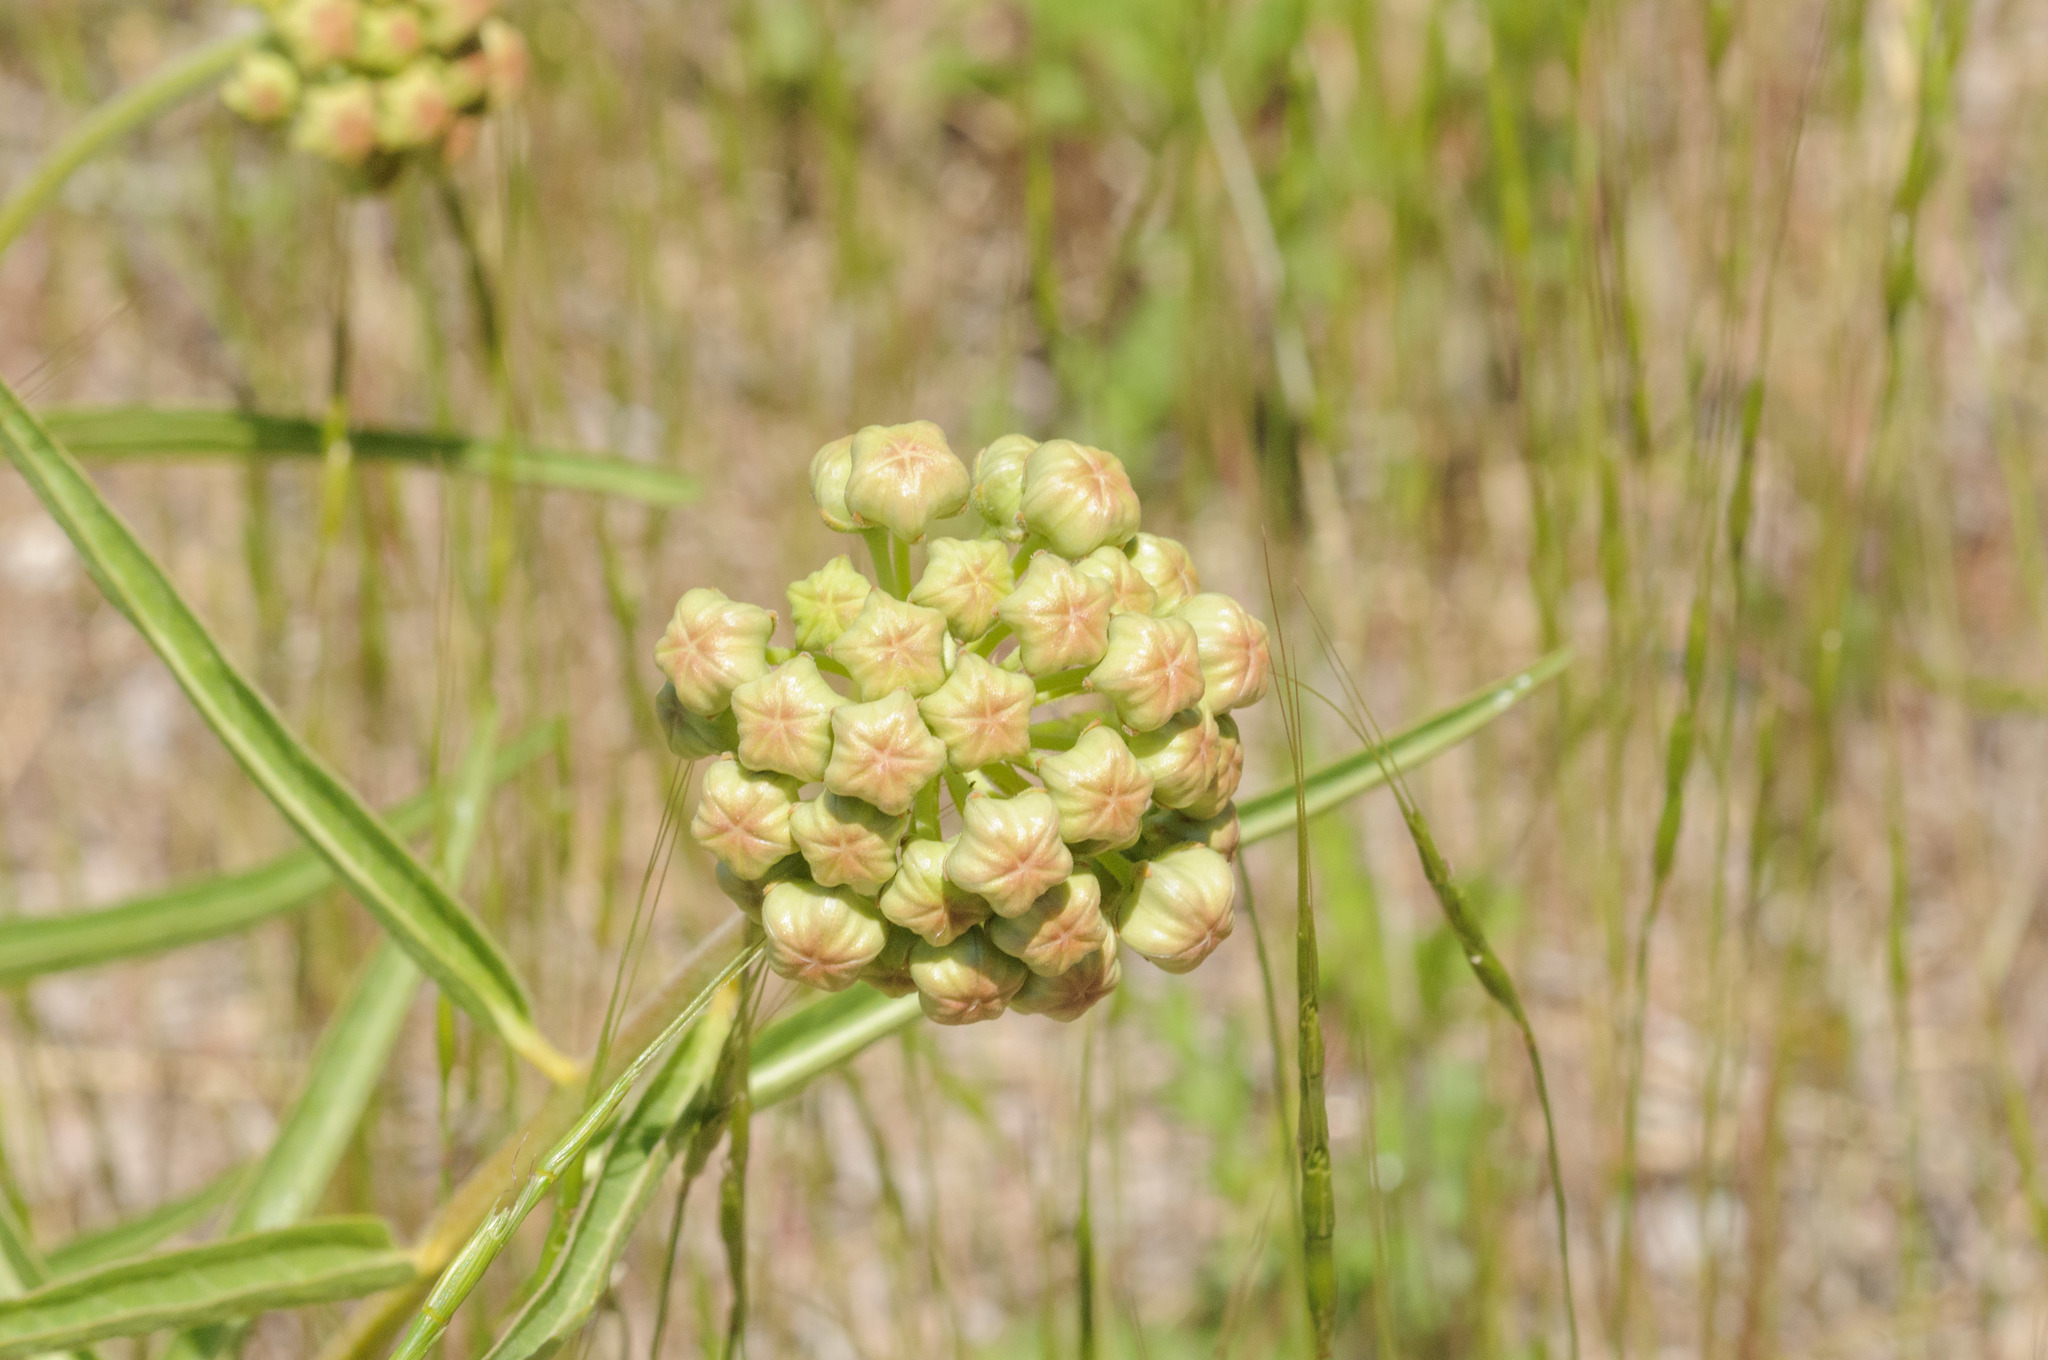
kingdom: Plantae
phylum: Tracheophyta
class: Magnoliopsida
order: Gentianales
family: Apocynaceae
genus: Asclepias
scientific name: Asclepias asperula
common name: Antelope horns
